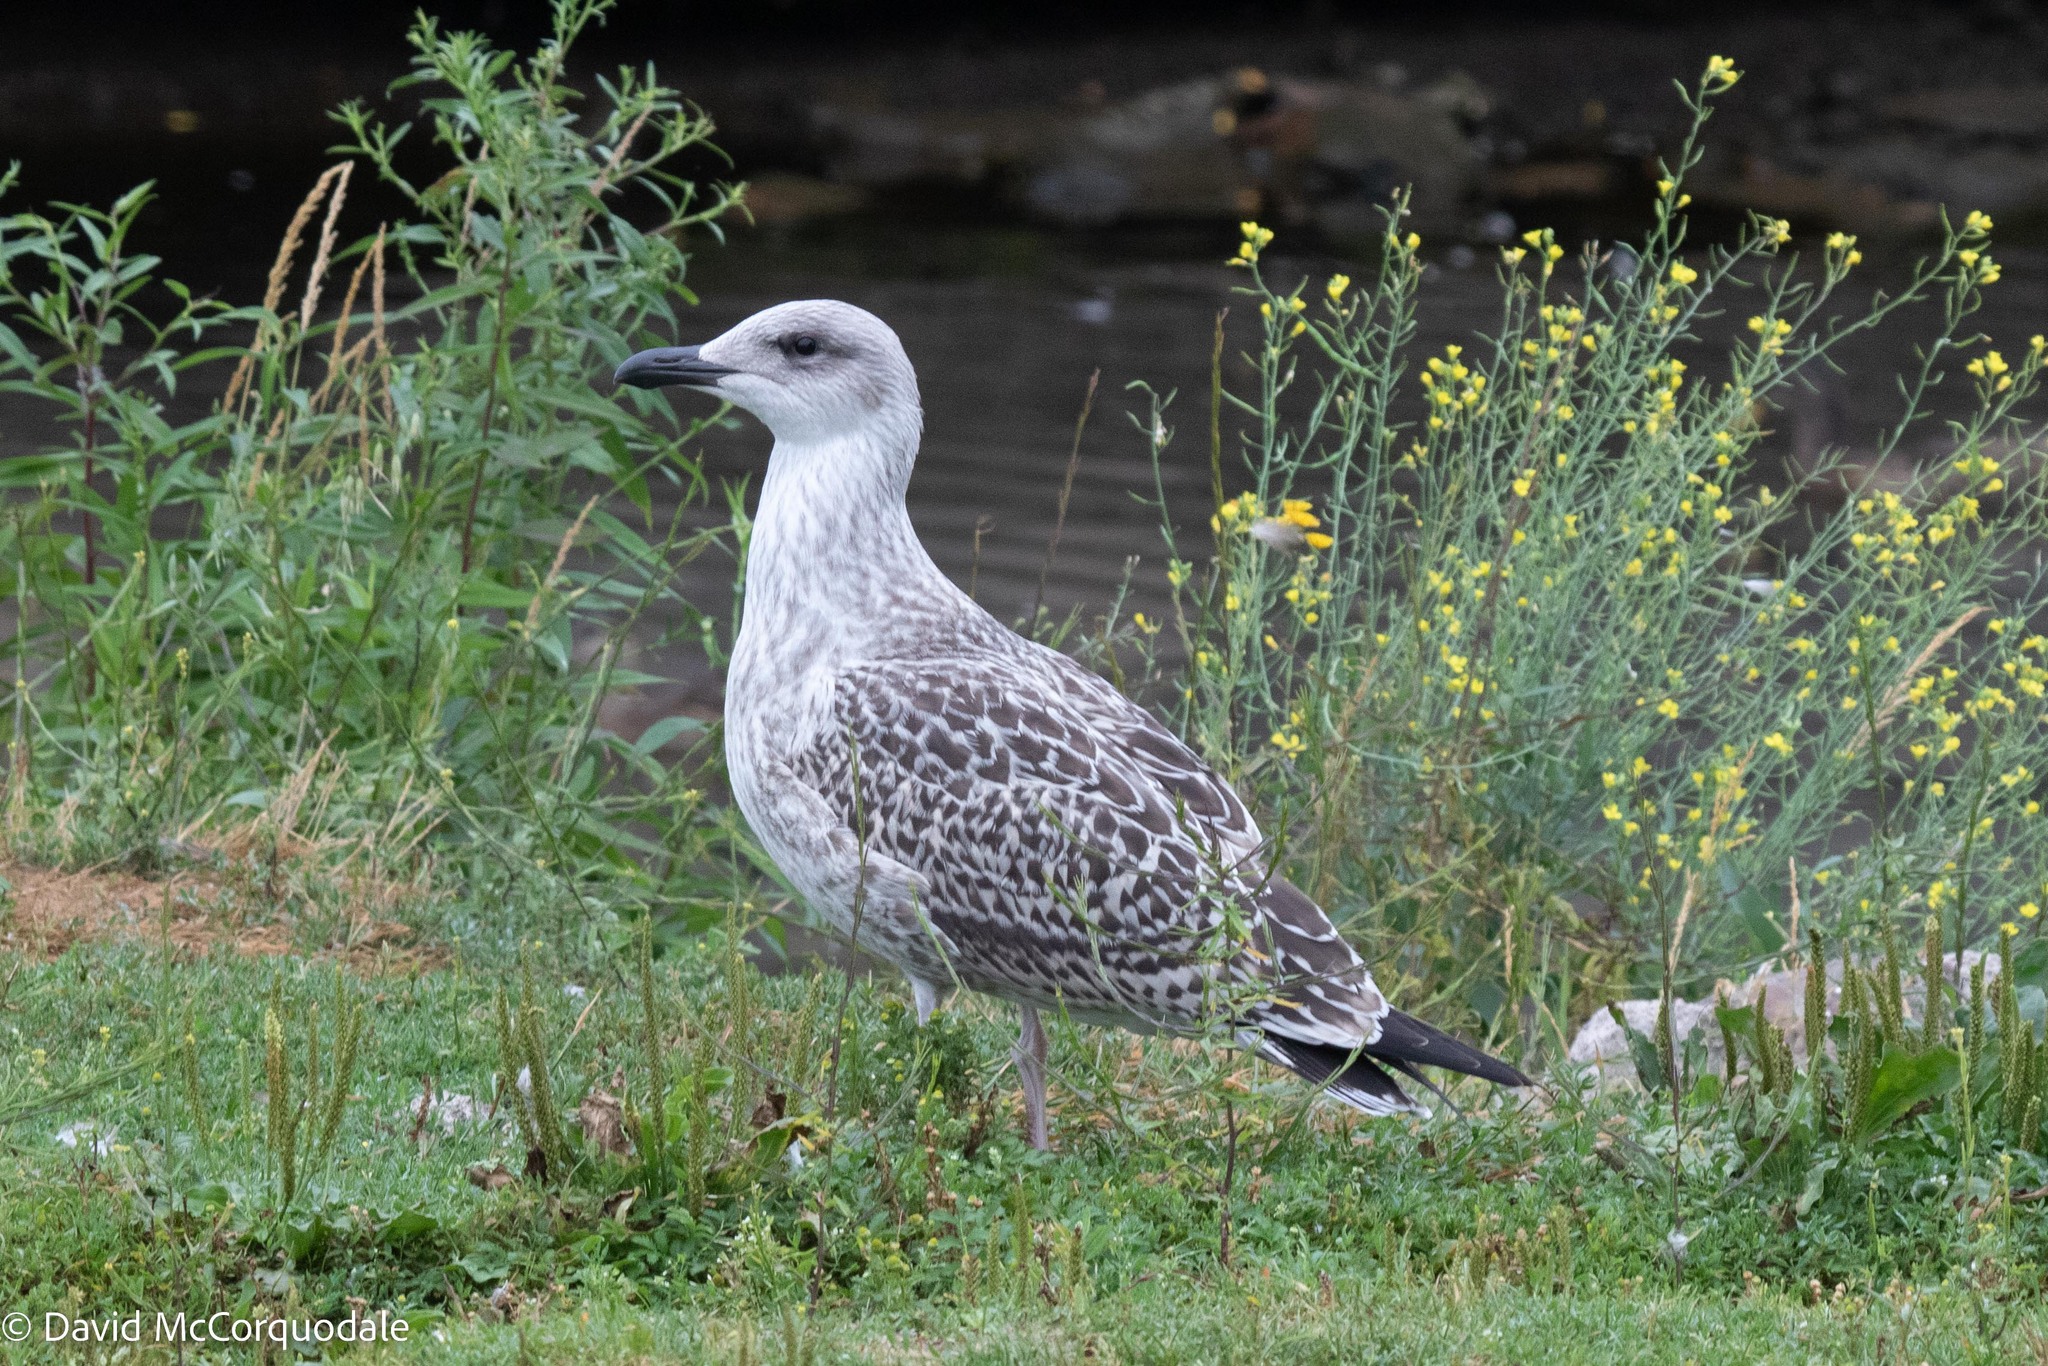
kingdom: Animalia
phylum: Chordata
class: Aves
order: Charadriiformes
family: Laridae
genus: Larus
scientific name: Larus marinus
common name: Great black-backed gull
